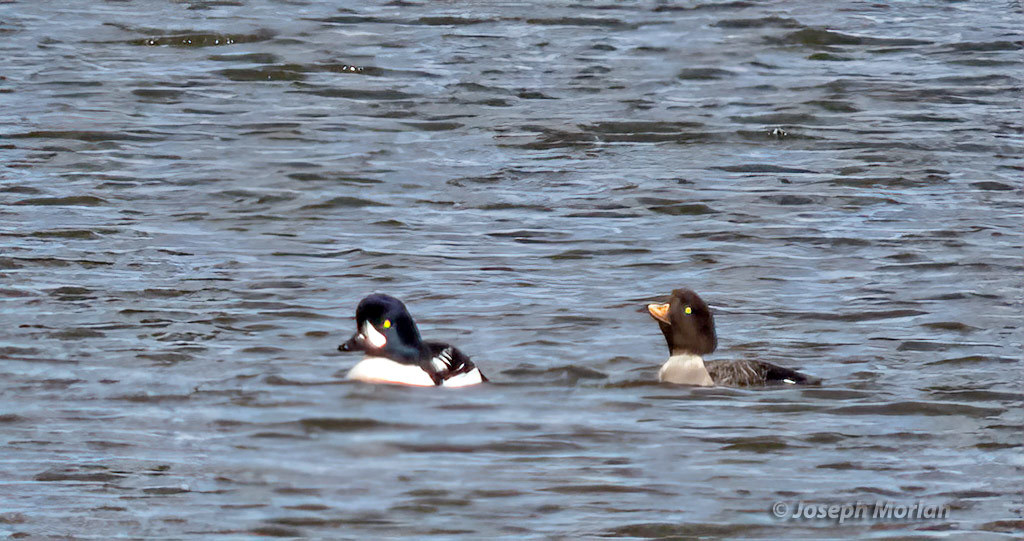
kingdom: Animalia
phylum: Chordata
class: Aves
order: Anseriformes
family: Anatidae
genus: Bucephala
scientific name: Bucephala islandica
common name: Barrow's goldeneye
